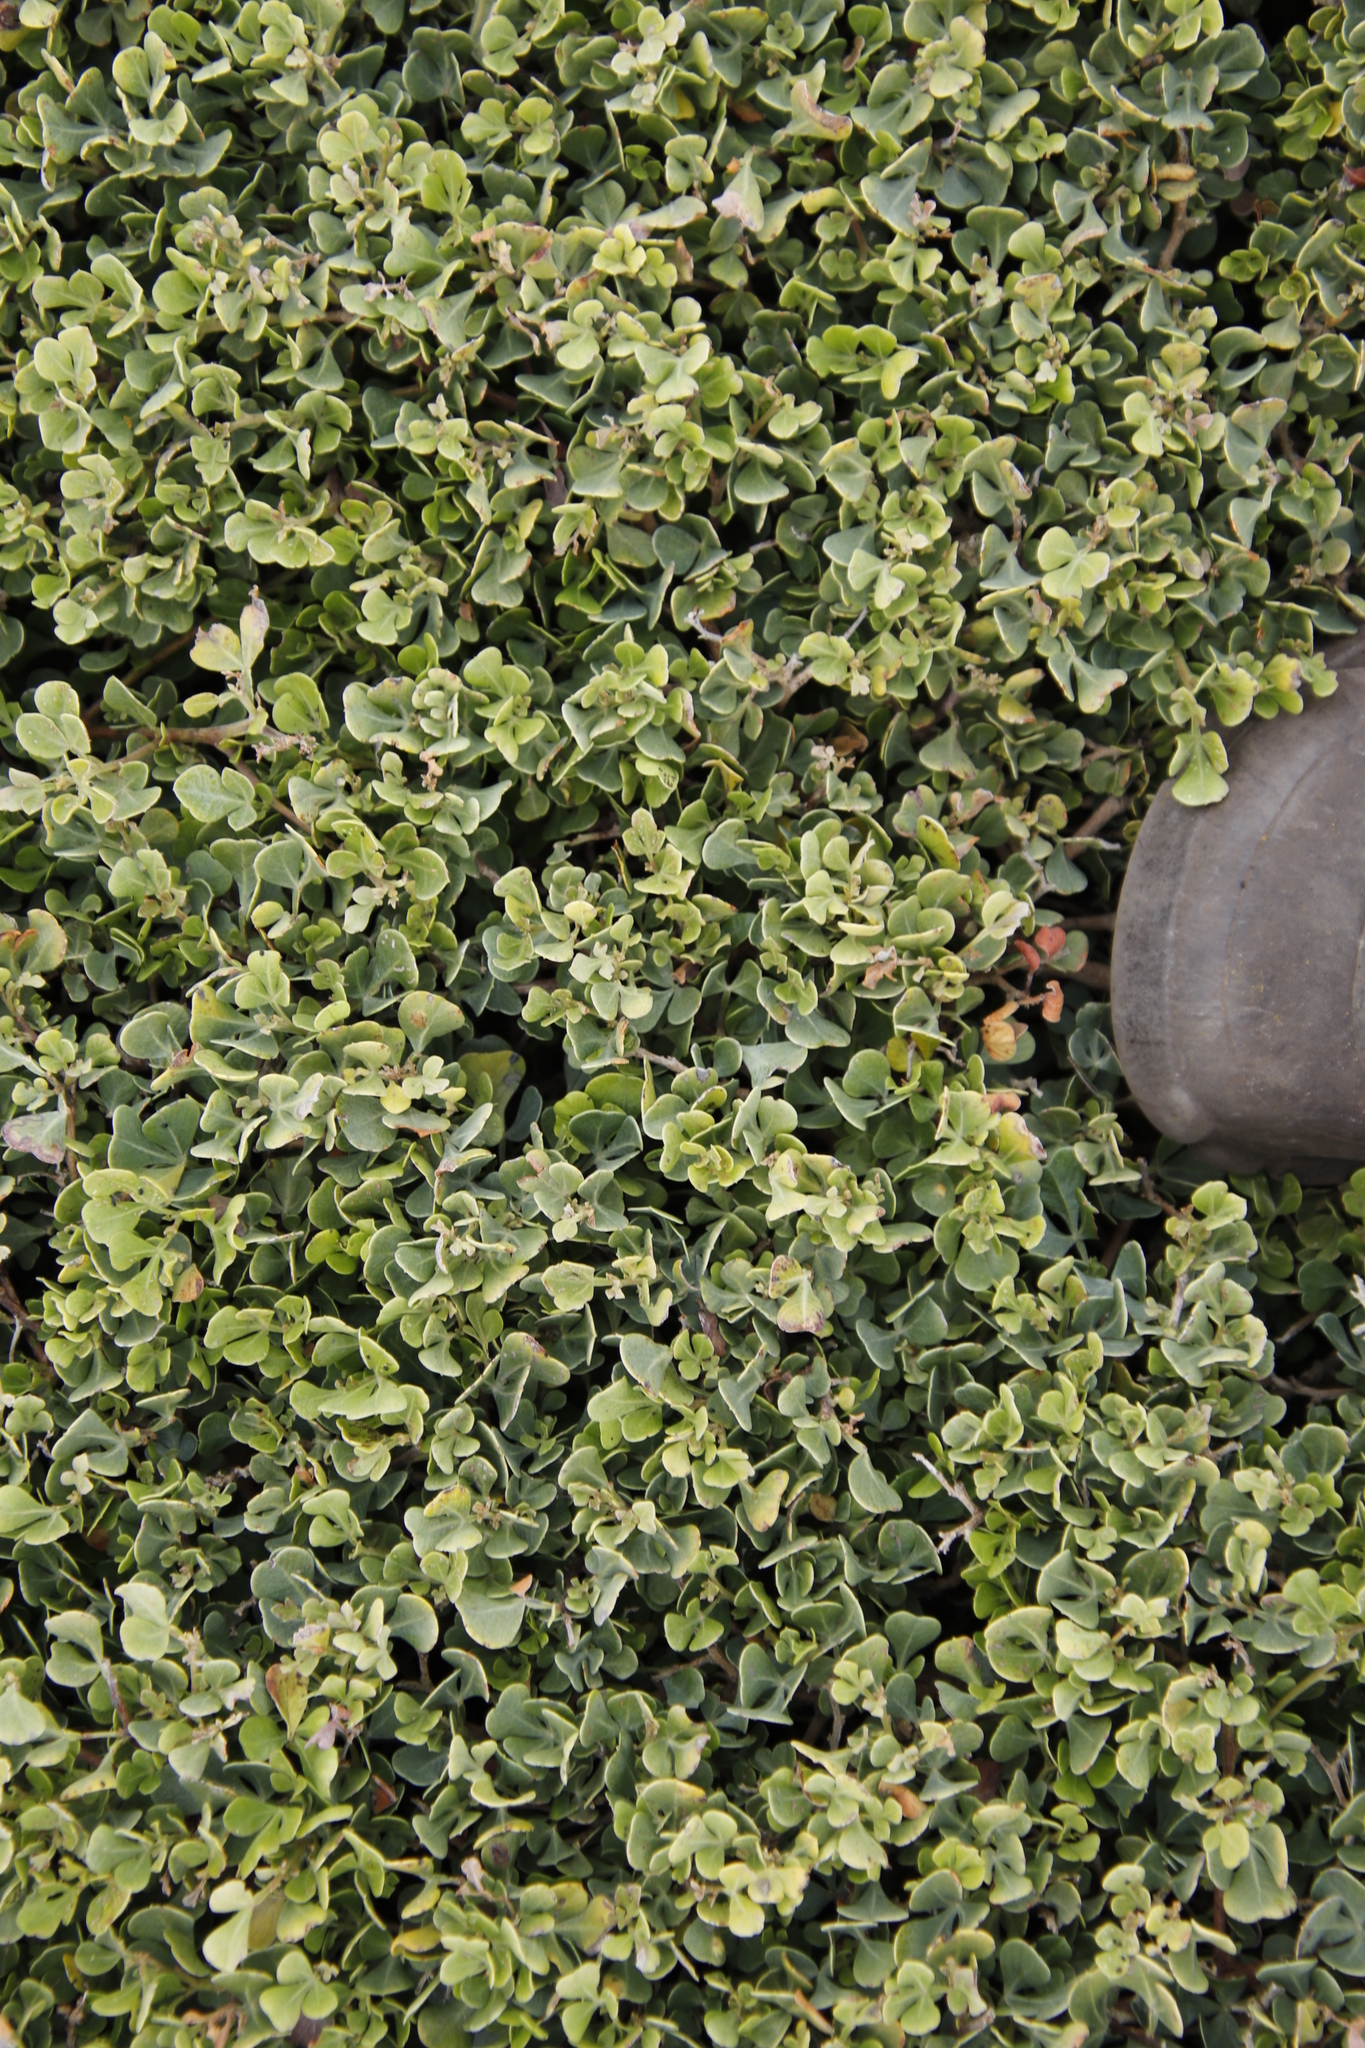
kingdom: Plantae
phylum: Tracheophyta
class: Magnoliopsida
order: Sapindales
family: Anacardiaceae
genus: Searsia
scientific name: Searsia glauca
